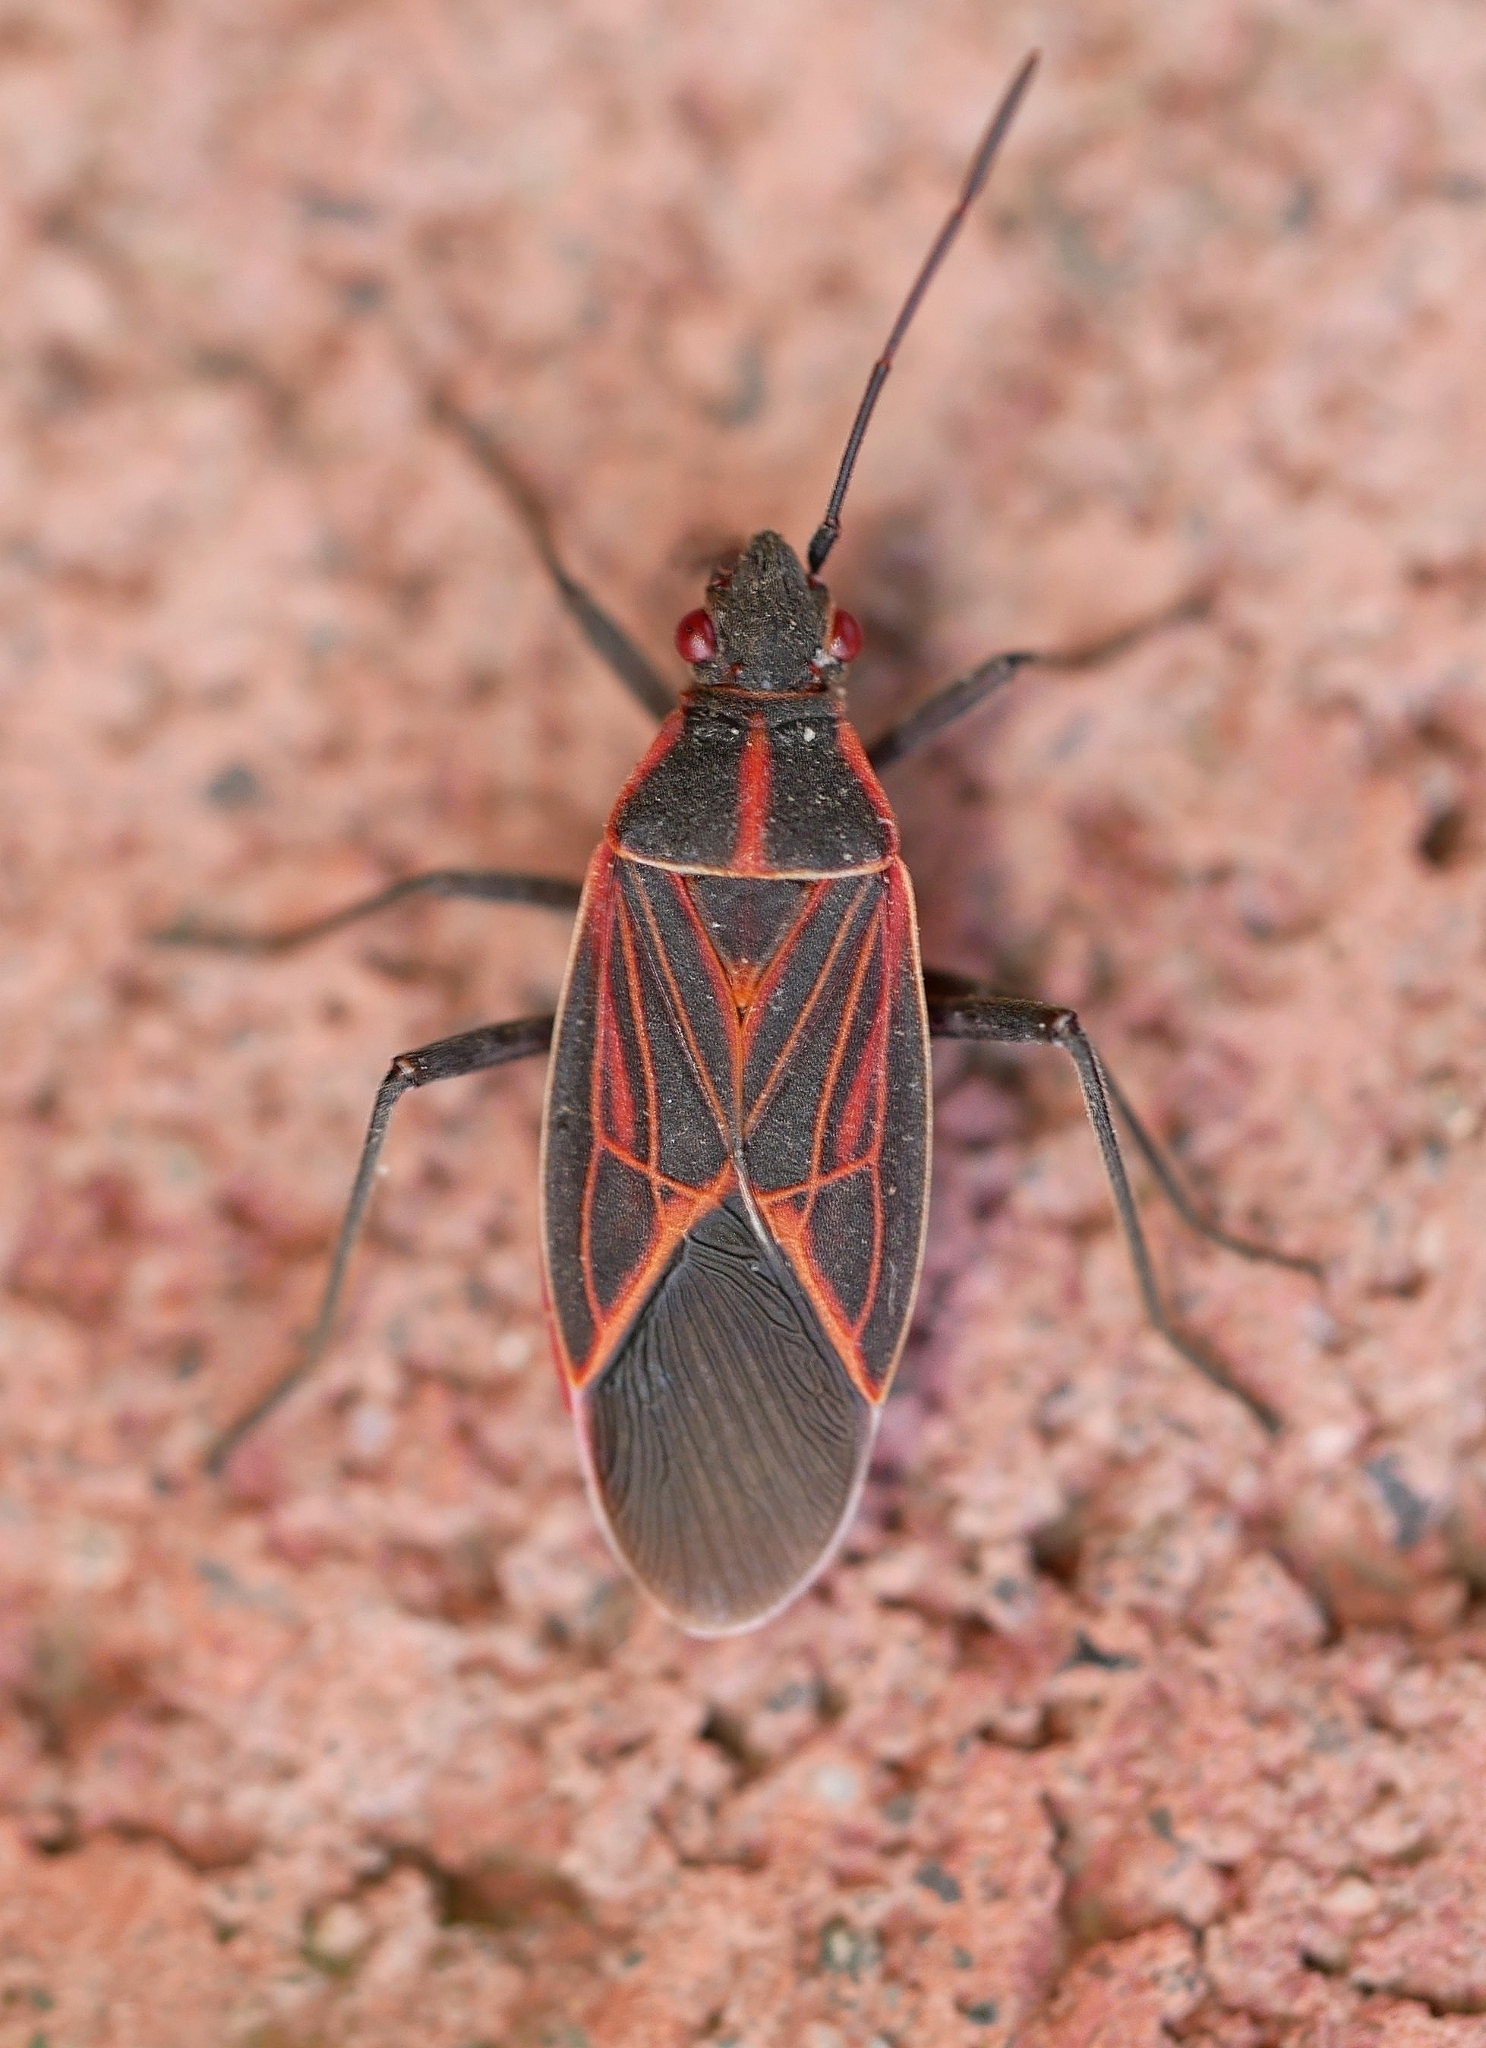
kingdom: Animalia
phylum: Arthropoda
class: Insecta
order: Hemiptera
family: Rhopalidae
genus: Boisea
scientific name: Boisea rubrolineata
